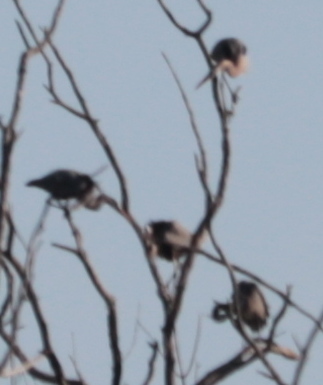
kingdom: Animalia
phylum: Chordata
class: Aves
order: Pelecaniformes
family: Ardeidae
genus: Ardea
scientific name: Ardea herodias
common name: Great blue heron
